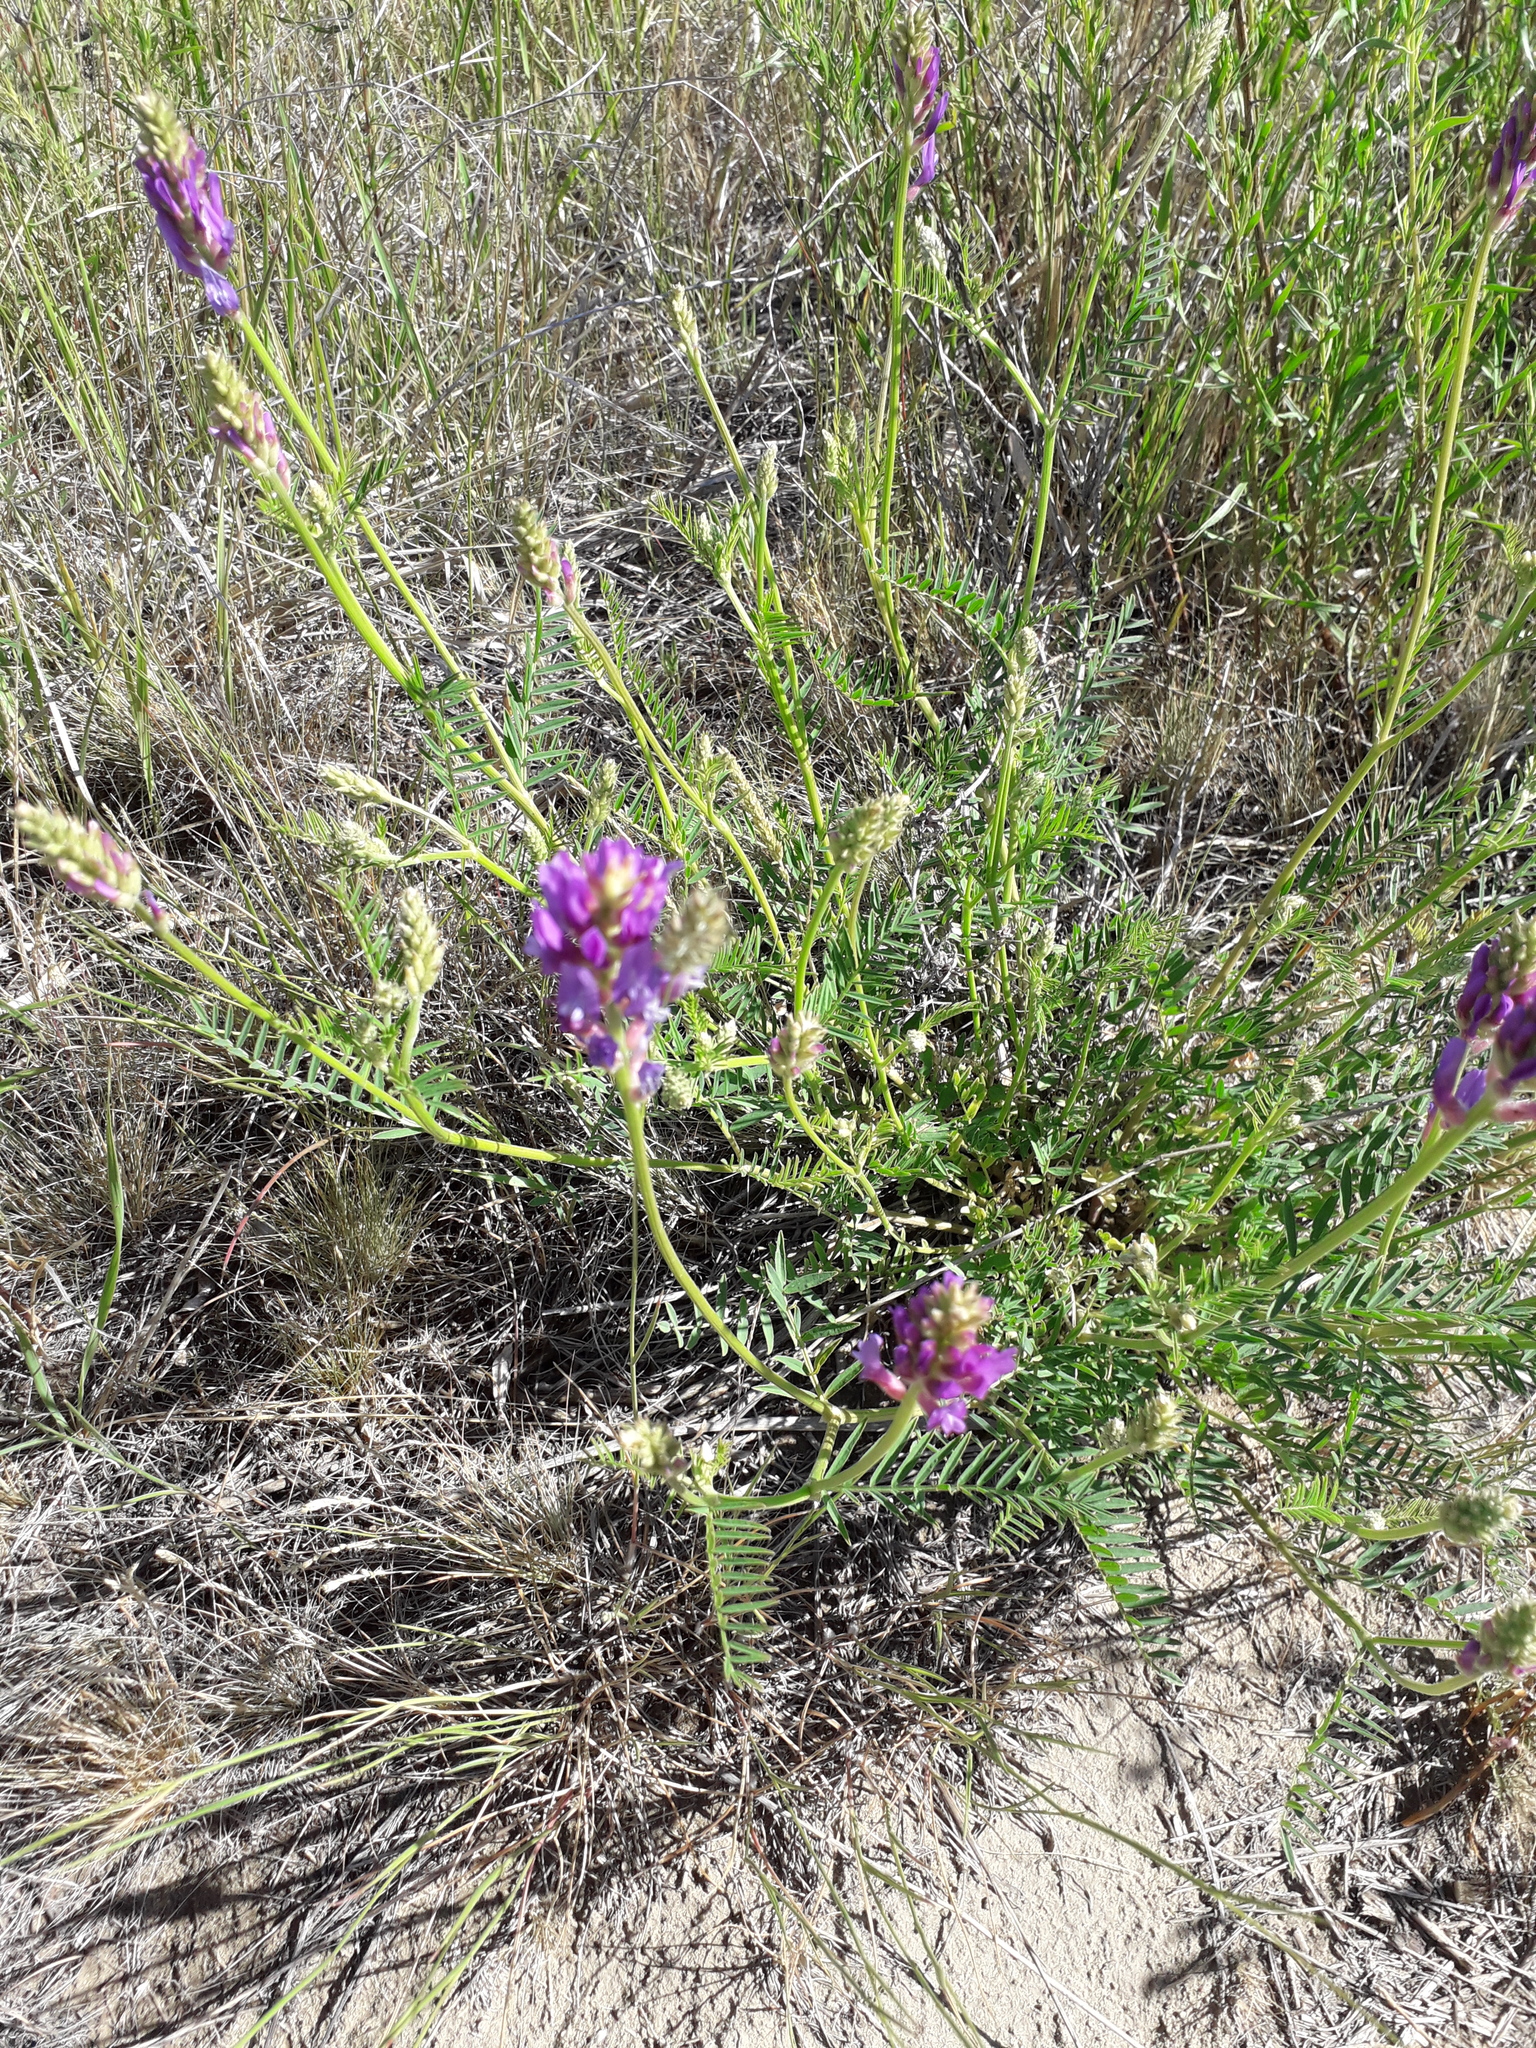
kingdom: Plantae
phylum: Tracheophyta
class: Magnoliopsida
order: Fabales
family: Fabaceae
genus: Astragalus
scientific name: Astragalus onobrychis
